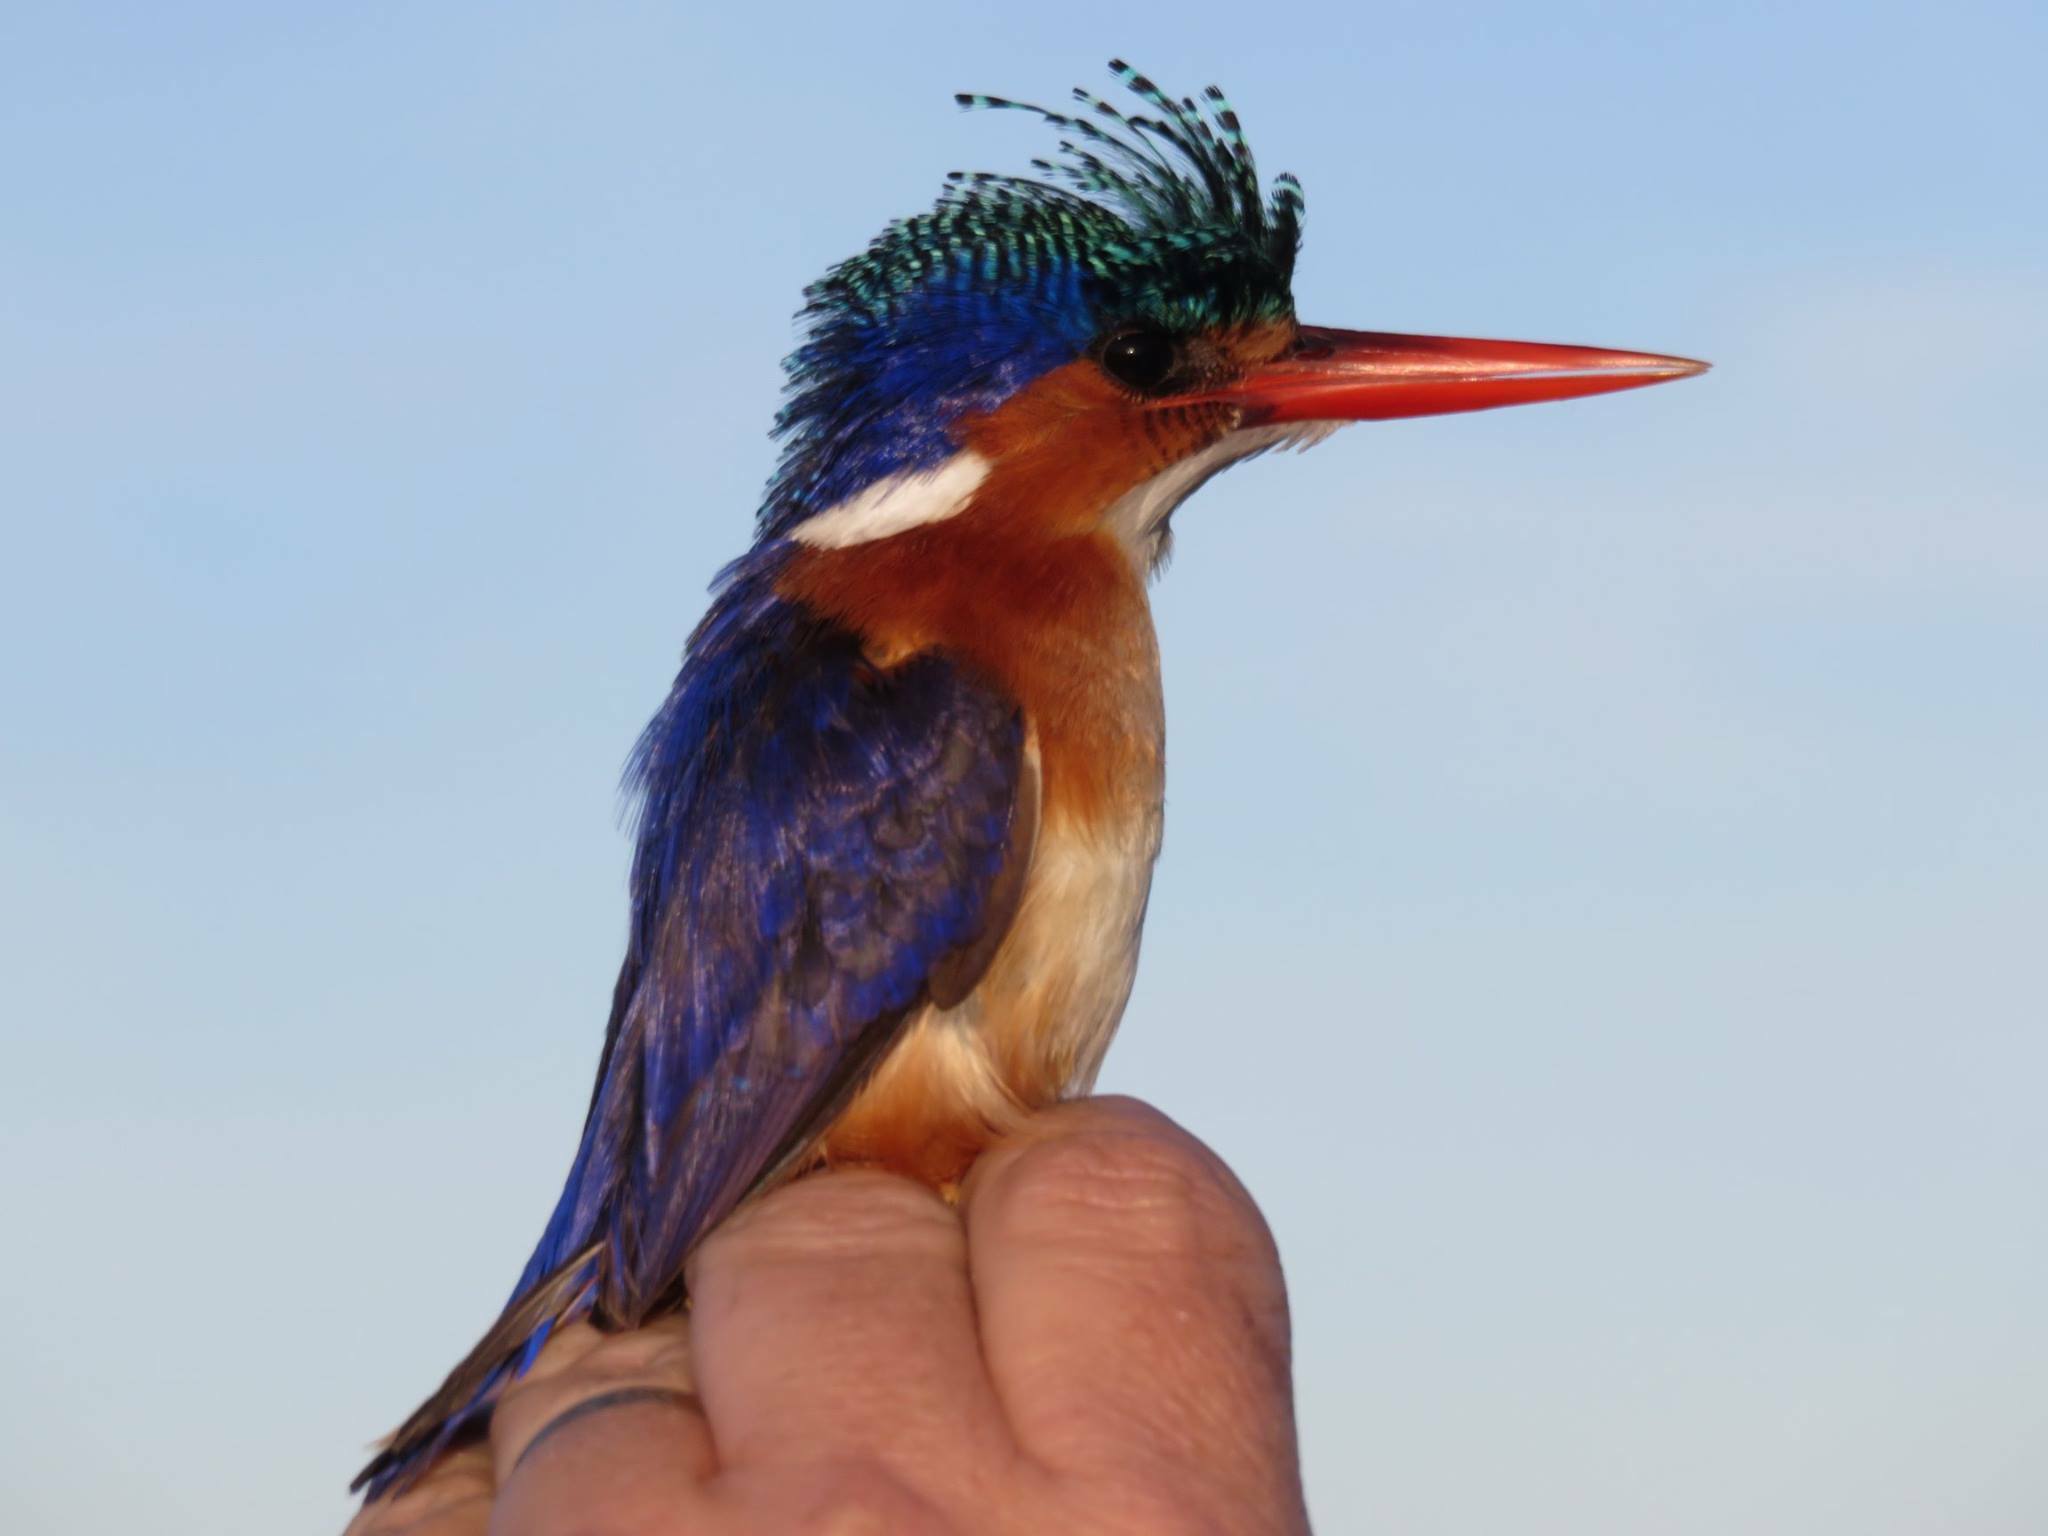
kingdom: Animalia
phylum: Chordata
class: Aves
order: Coraciiformes
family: Alcedinidae
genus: Corythornis
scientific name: Corythornis cristatus
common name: Malachite kingfisher
